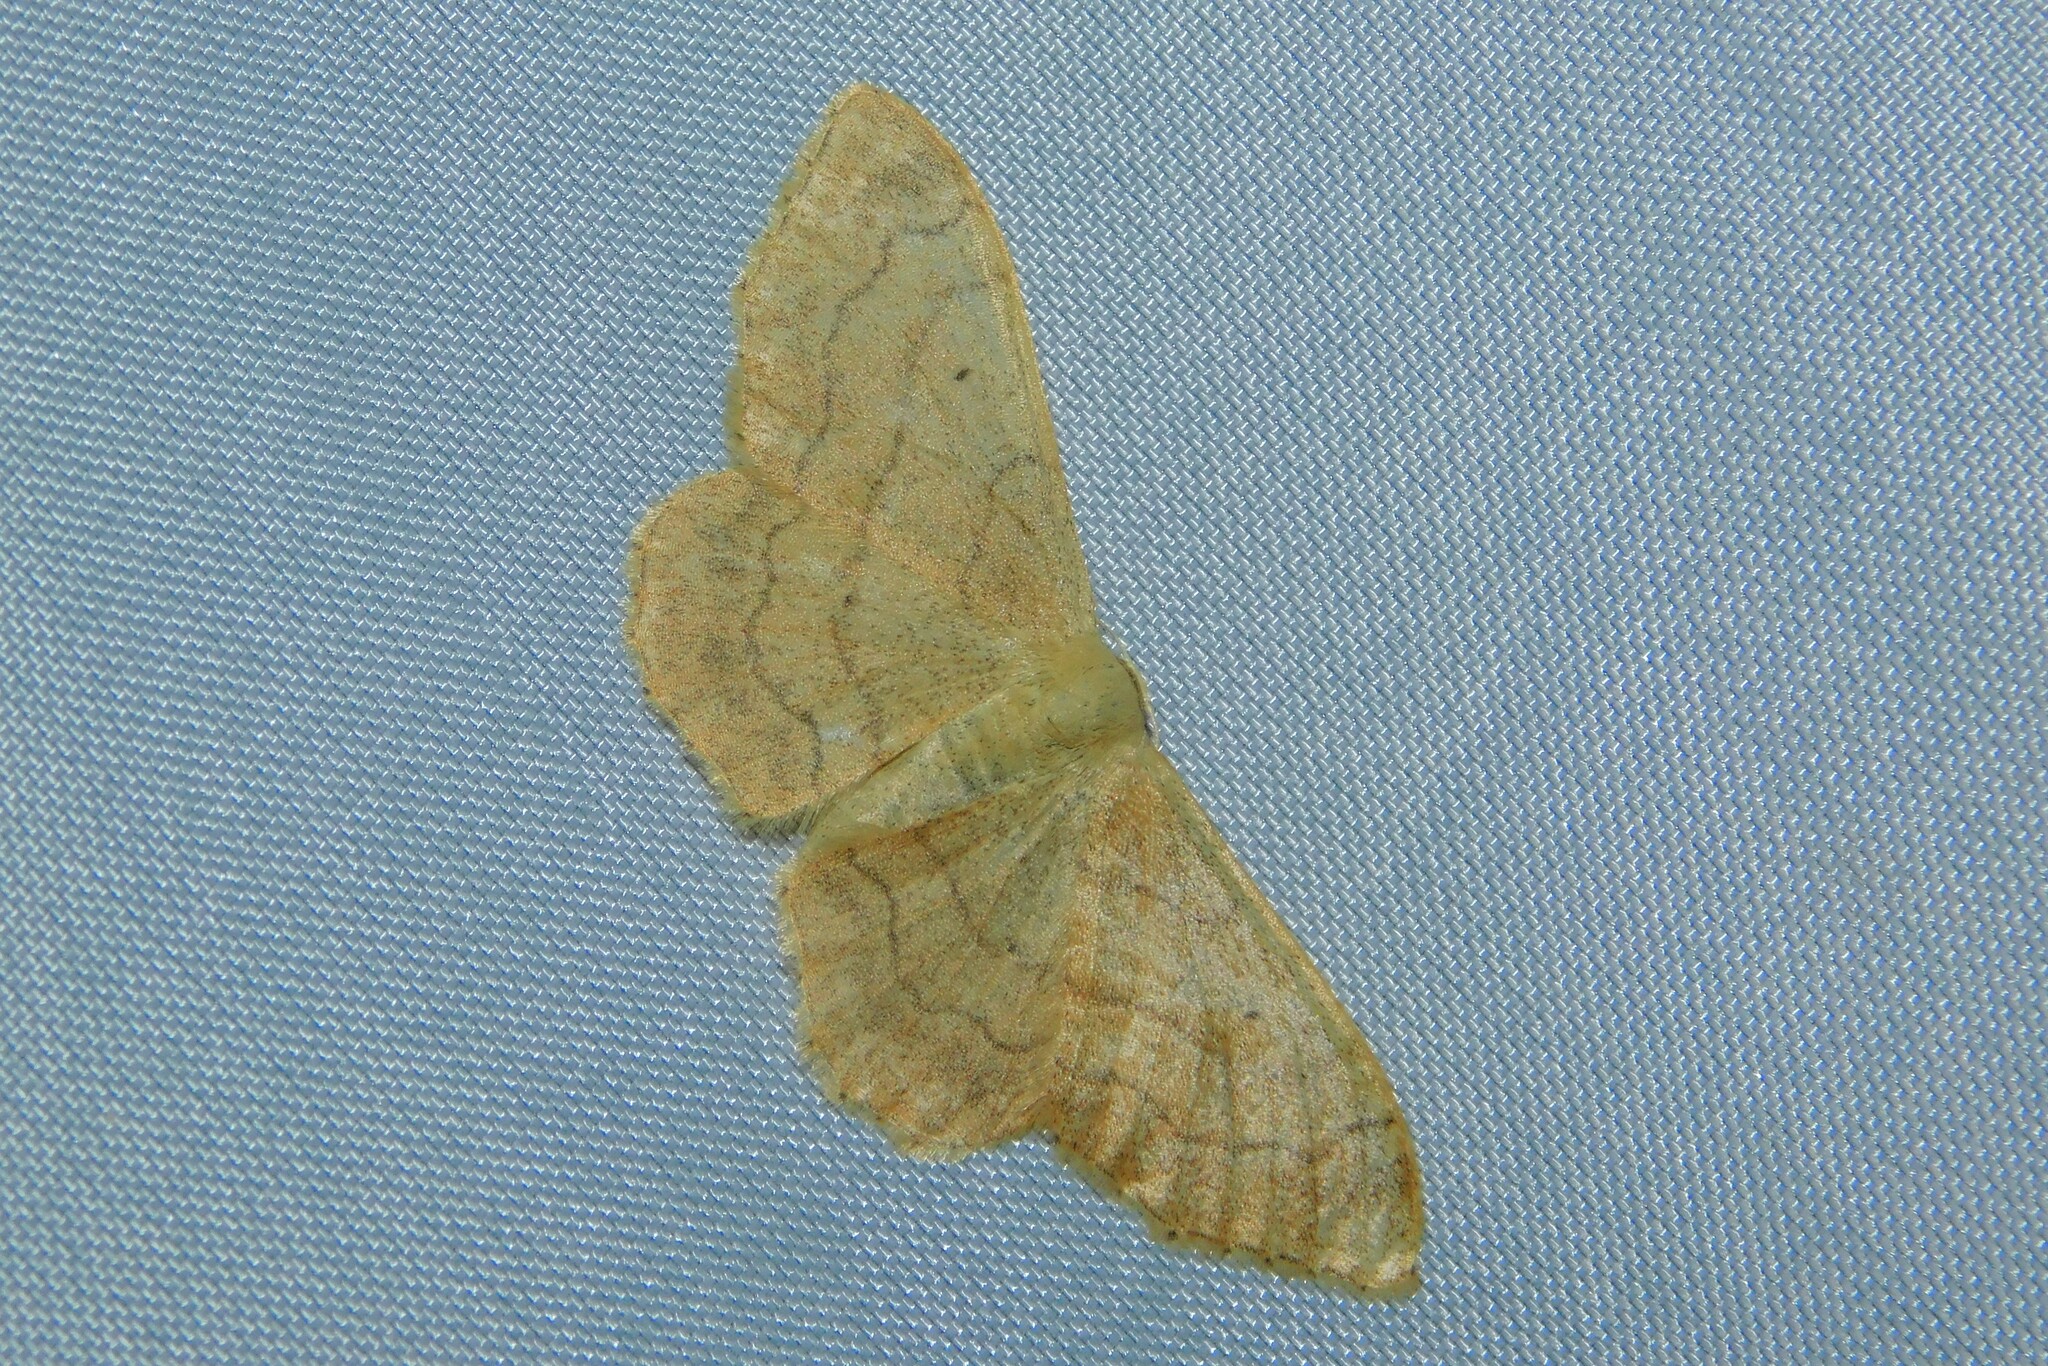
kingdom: Animalia
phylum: Arthropoda
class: Insecta
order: Lepidoptera
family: Geometridae
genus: Idaea
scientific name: Idaea aversata
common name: Riband wave
